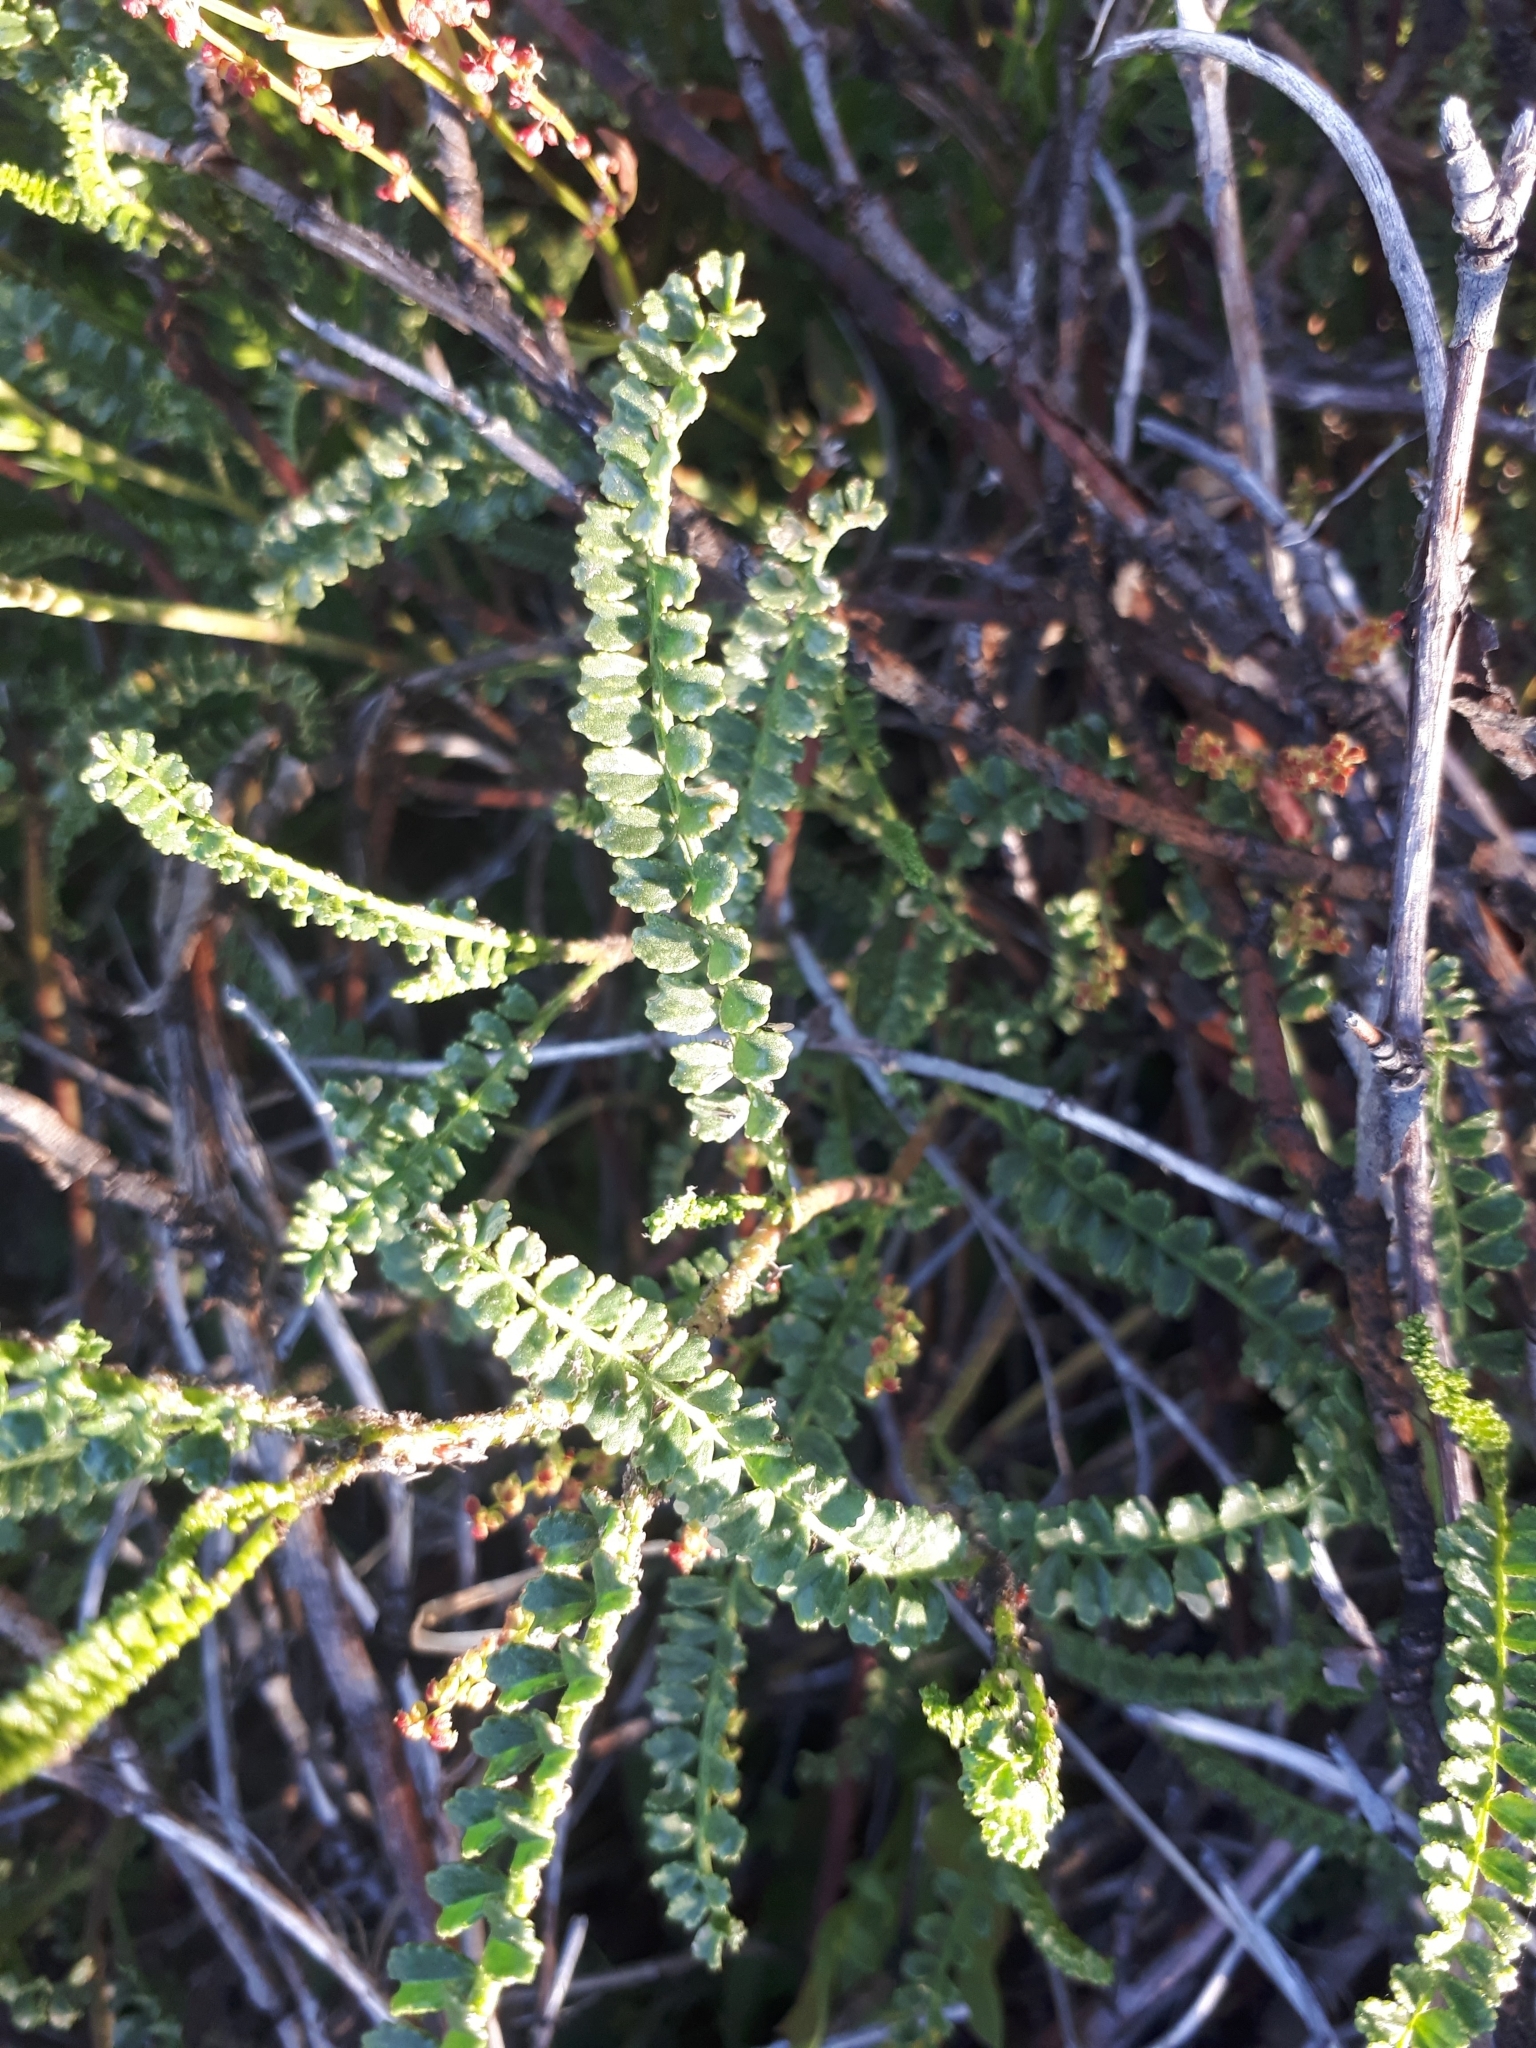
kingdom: Plantae
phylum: Tracheophyta
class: Magnoliopsida
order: Fabales
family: Fabaceae
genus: Adesmia
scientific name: Adesmia boronioides
